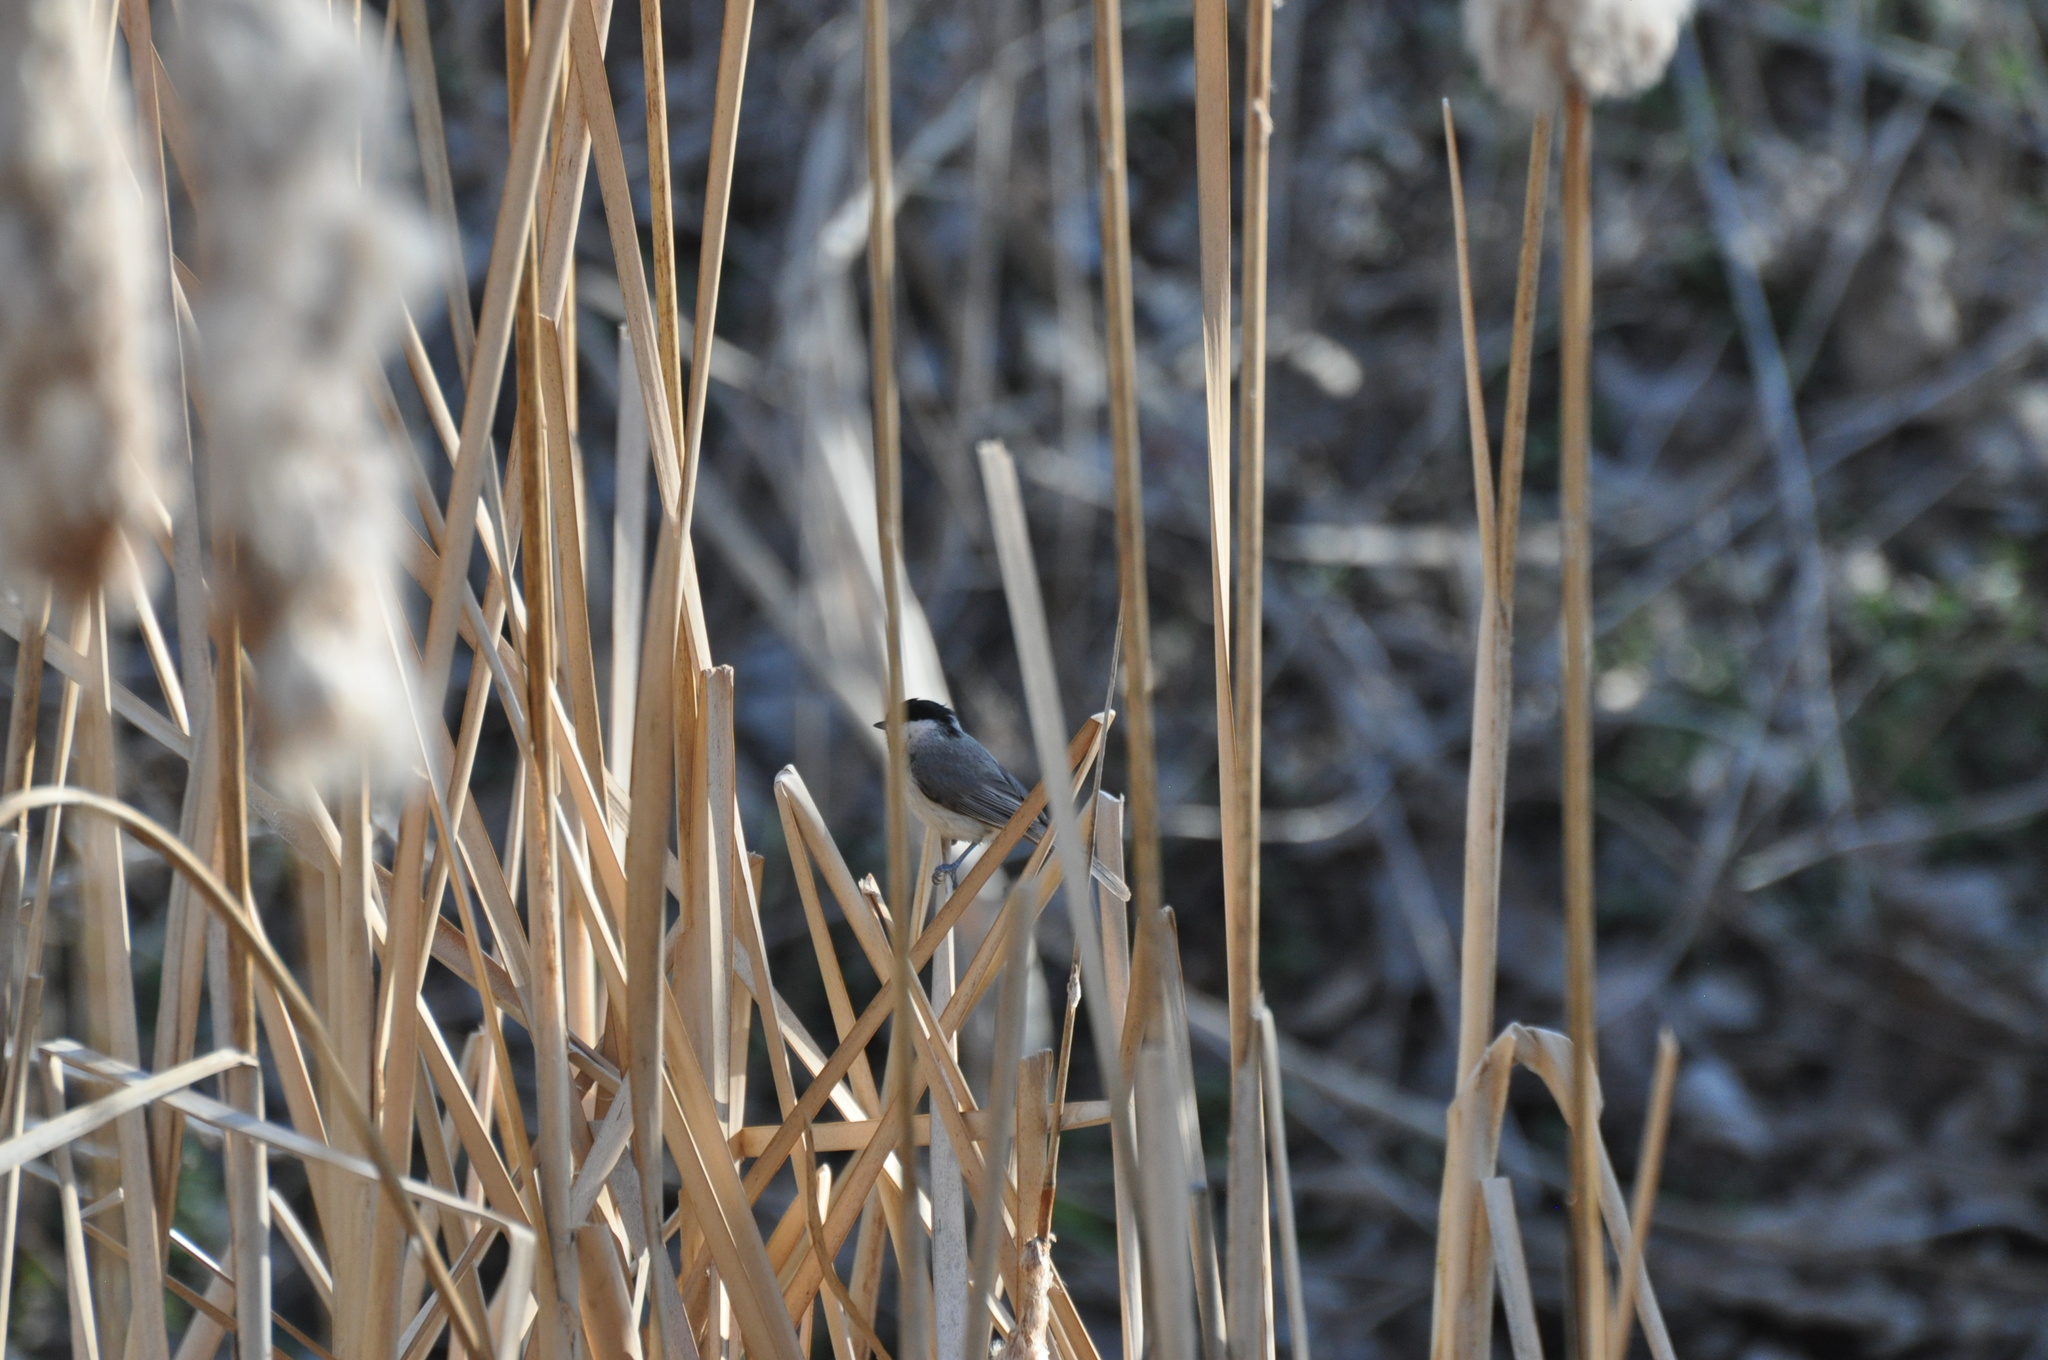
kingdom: Animalia
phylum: Chordata
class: Aves
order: Passeriformes
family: Paridae
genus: Poecile
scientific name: Poecile carolinensis
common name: Carolina chickadee
